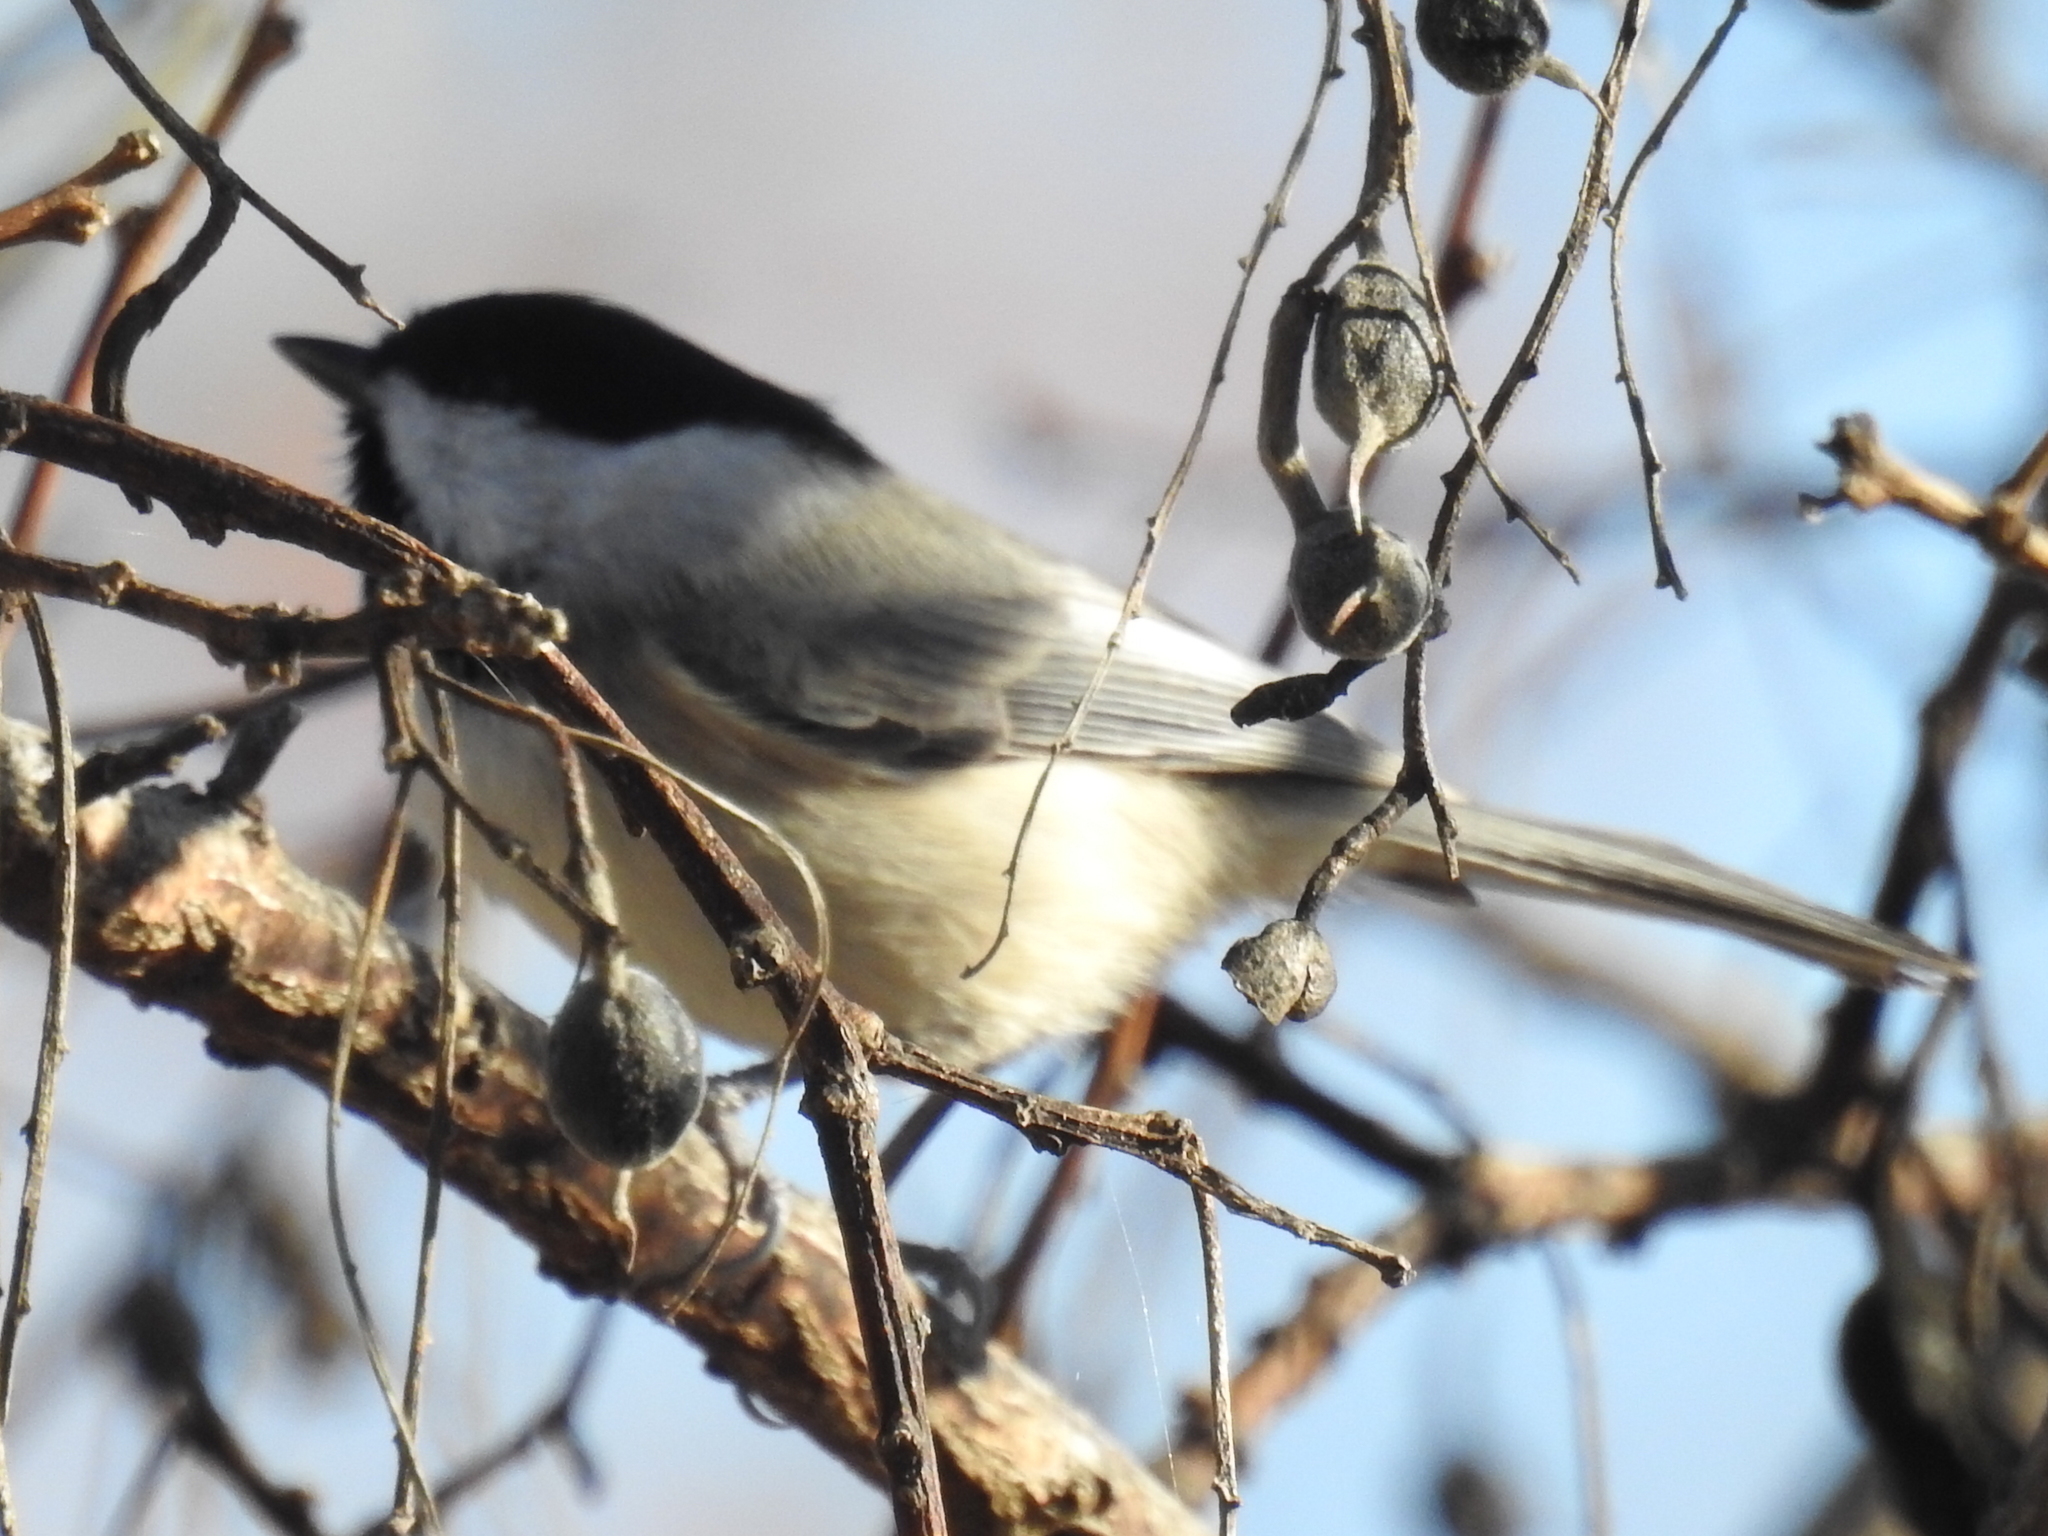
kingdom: Animalia
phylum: Chordata
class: Aves
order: Passeriformes
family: Paridae
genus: Poecile
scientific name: Poecile carolinensis
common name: Carolina chickadee
